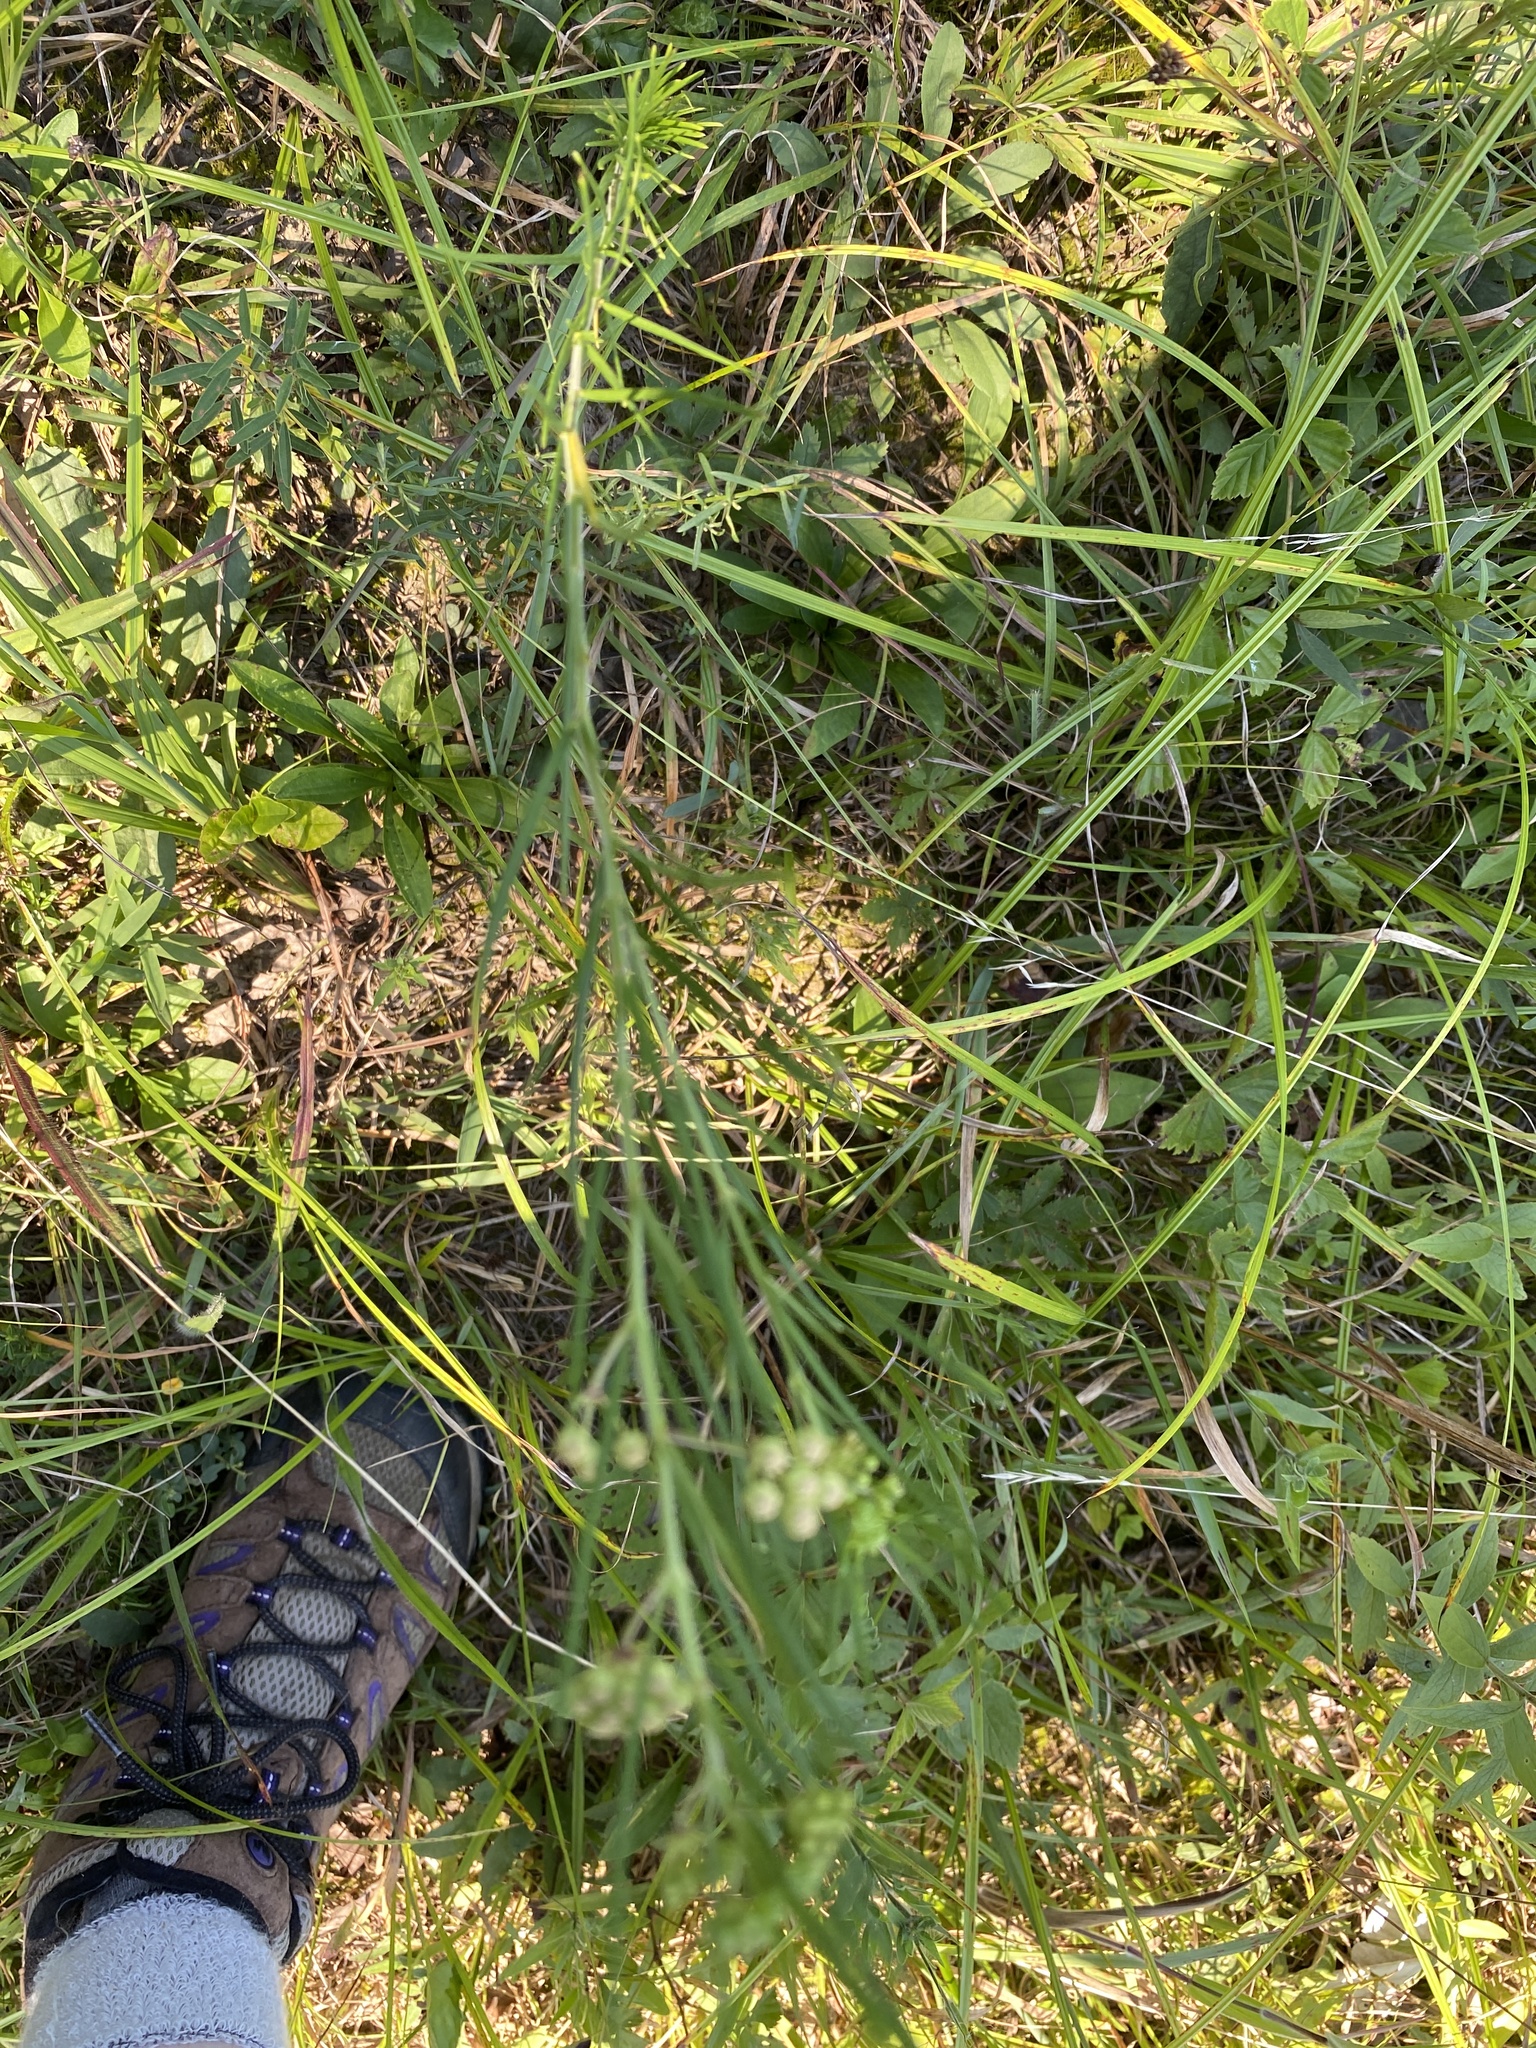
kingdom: Plantae
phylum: Tracheophyta
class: Magnoliopsida
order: Gentianales
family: Apocynaceae
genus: Asclepias
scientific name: Asclepias verticillata
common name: Eastern whorled milkweed
